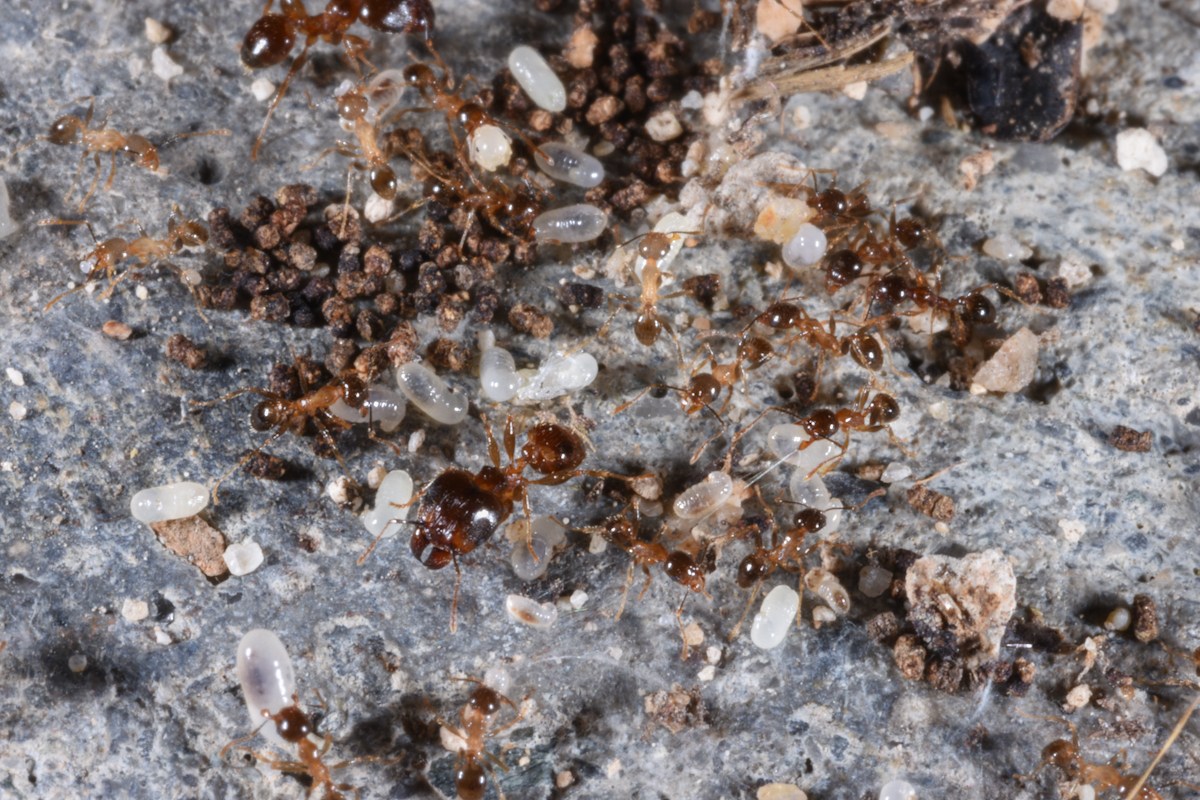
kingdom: Animalia
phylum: Arthropoda
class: Insecta
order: Hymenoptera
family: Formicidae
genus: Pheidole
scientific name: Pheidole megacephala
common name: Bigheaded ant
